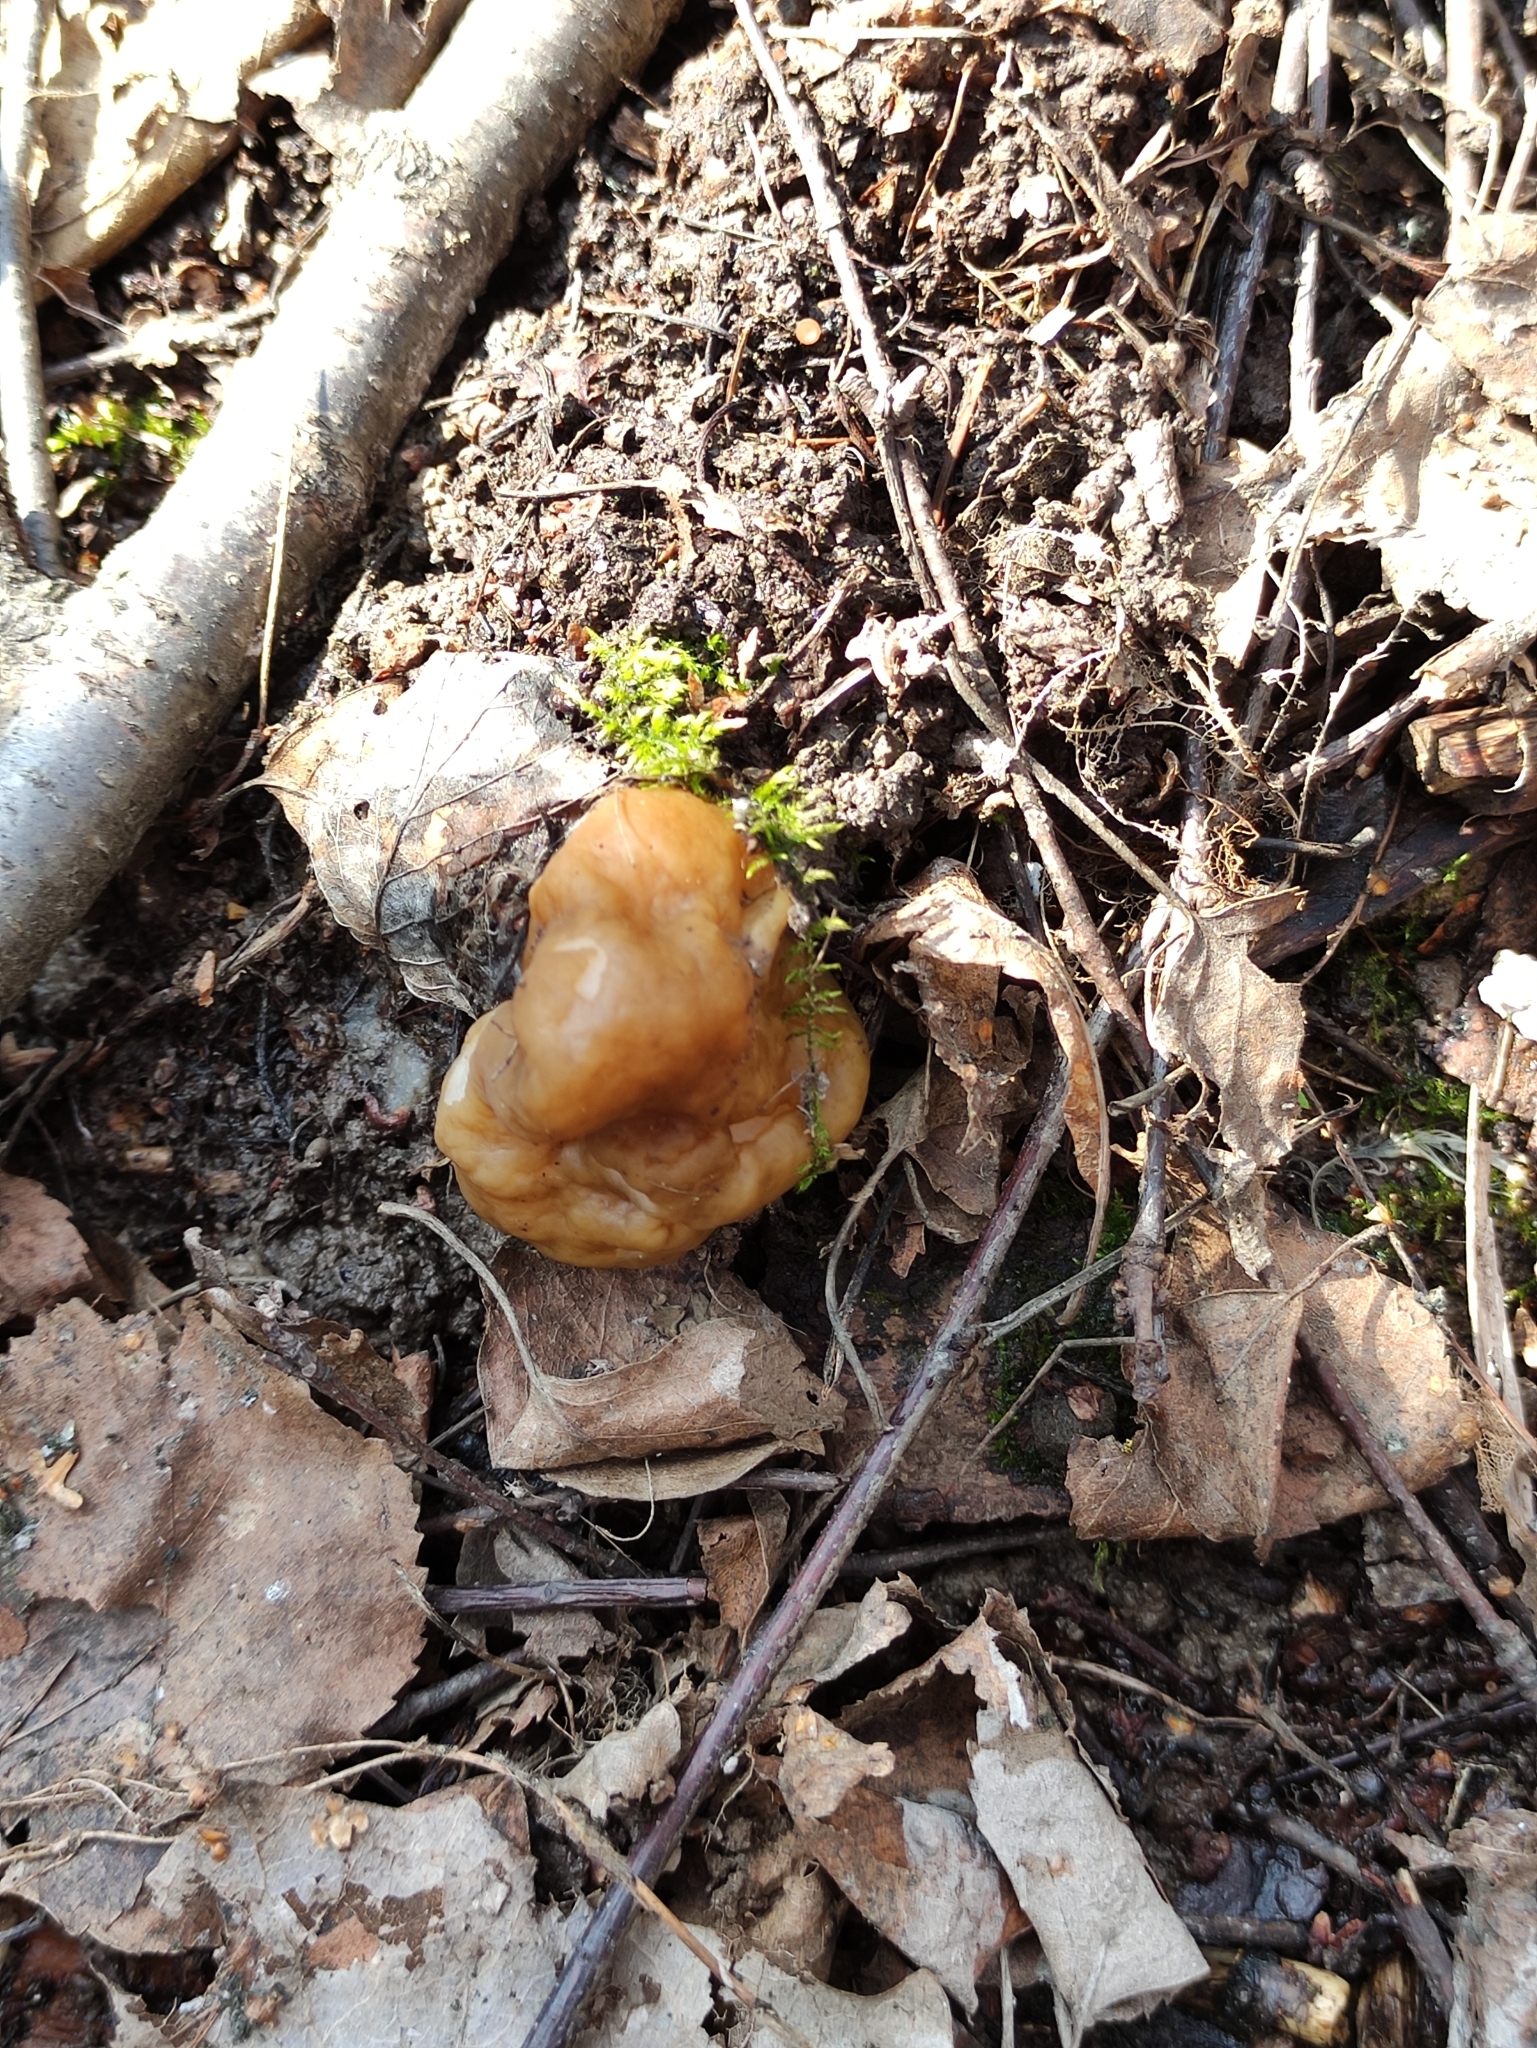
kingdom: Fungi
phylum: Ascomycota
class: Pezizomycetes
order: Pezizales
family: Discinaceae
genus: Gyromitra
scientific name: Gyromitra gigas
